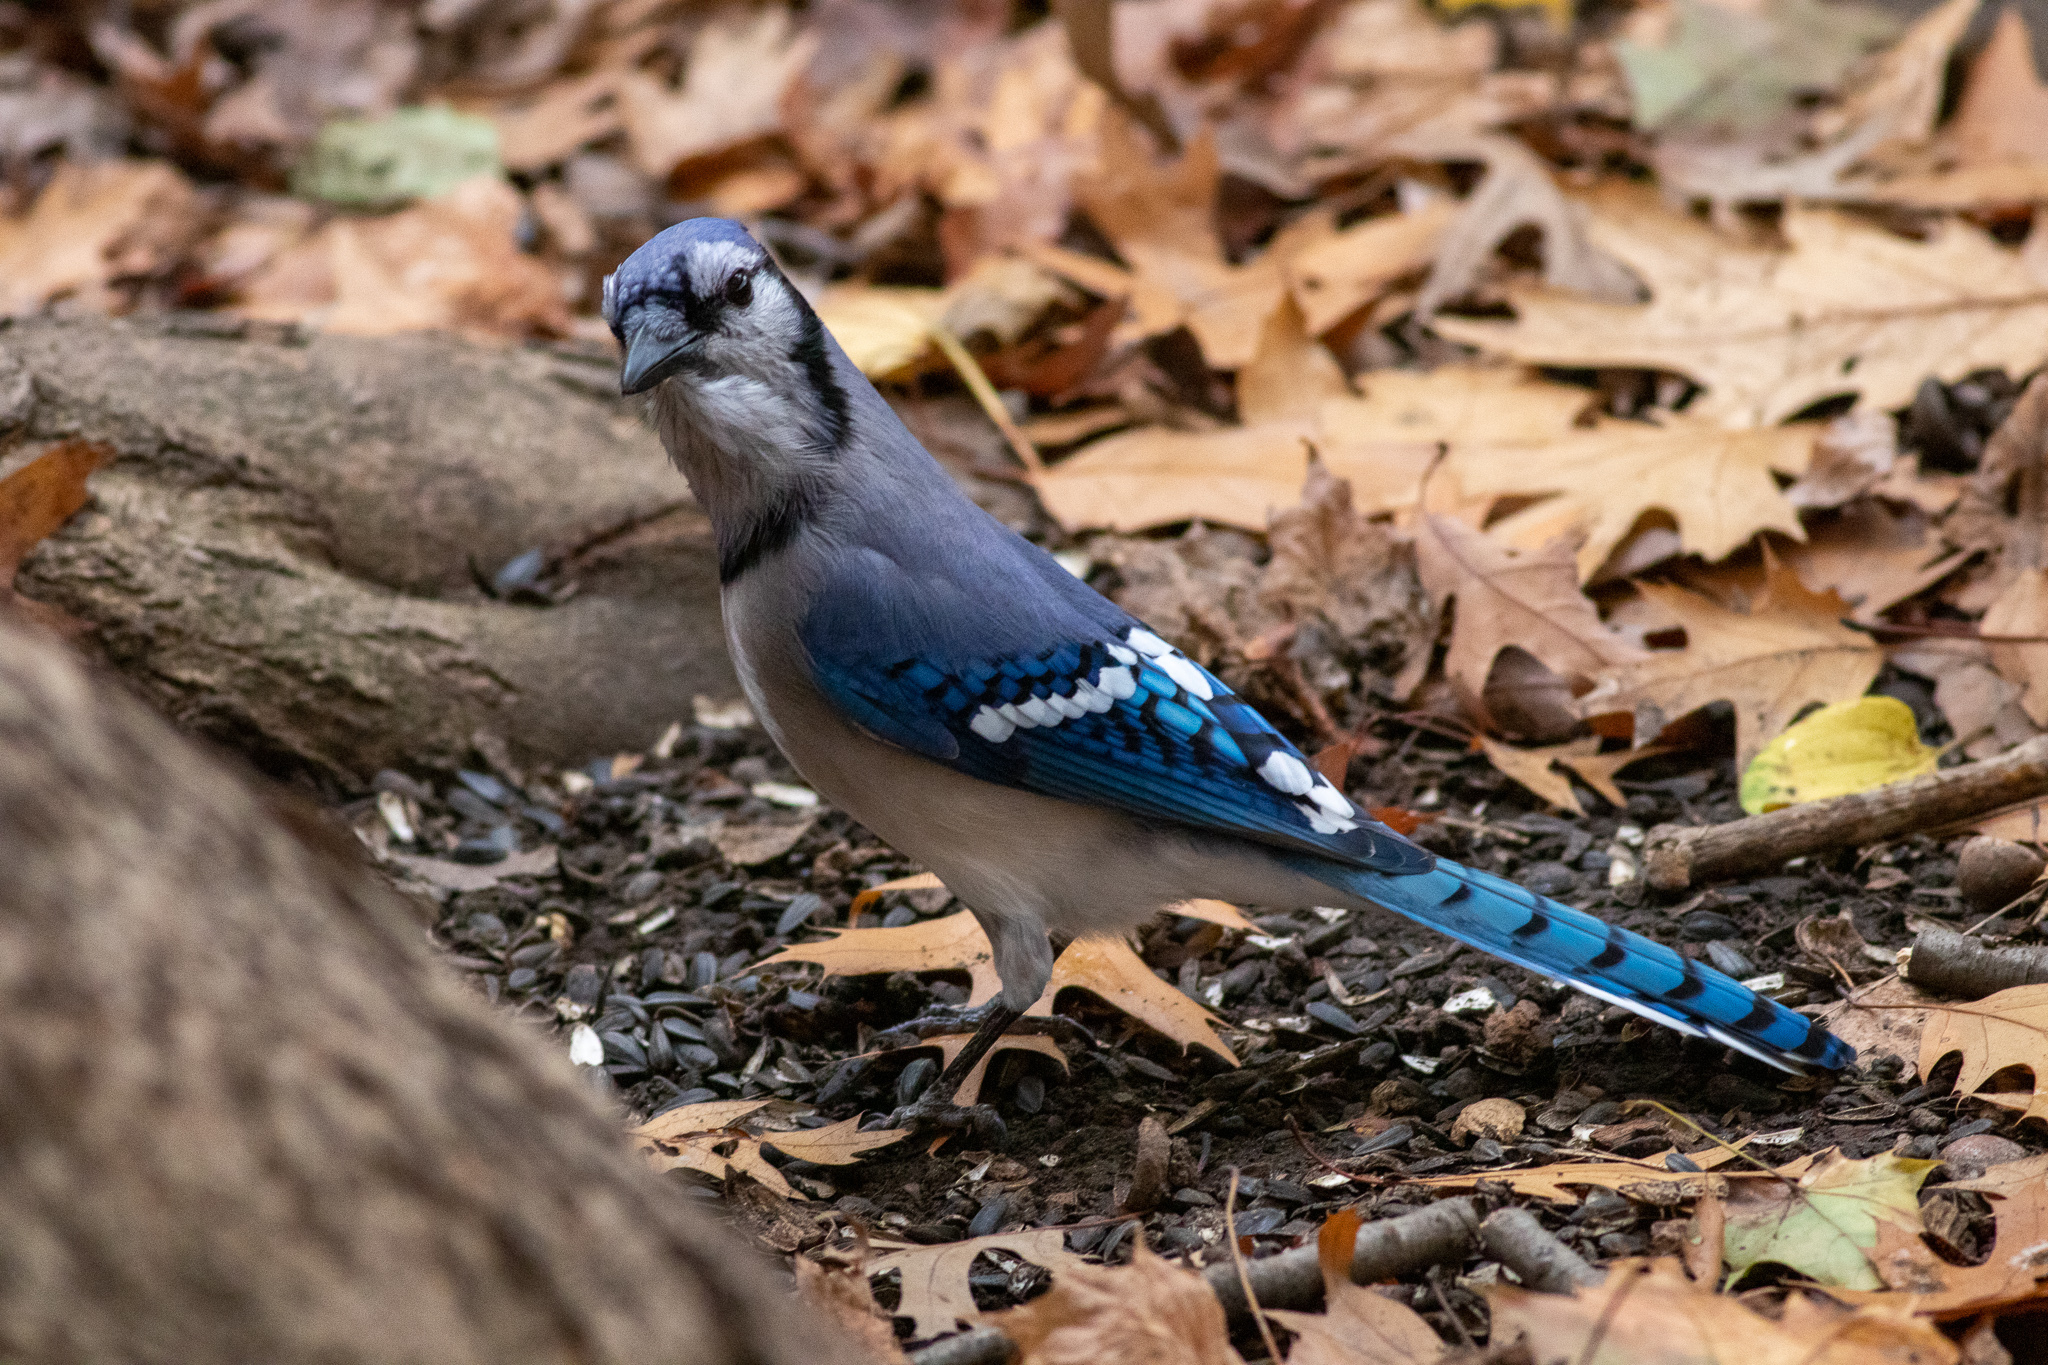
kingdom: Animalia
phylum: Chordata
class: Aves
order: Passeriformes
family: Corvidae
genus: Cyanocitta
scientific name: Cyanocitta cristata
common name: Blue jay
